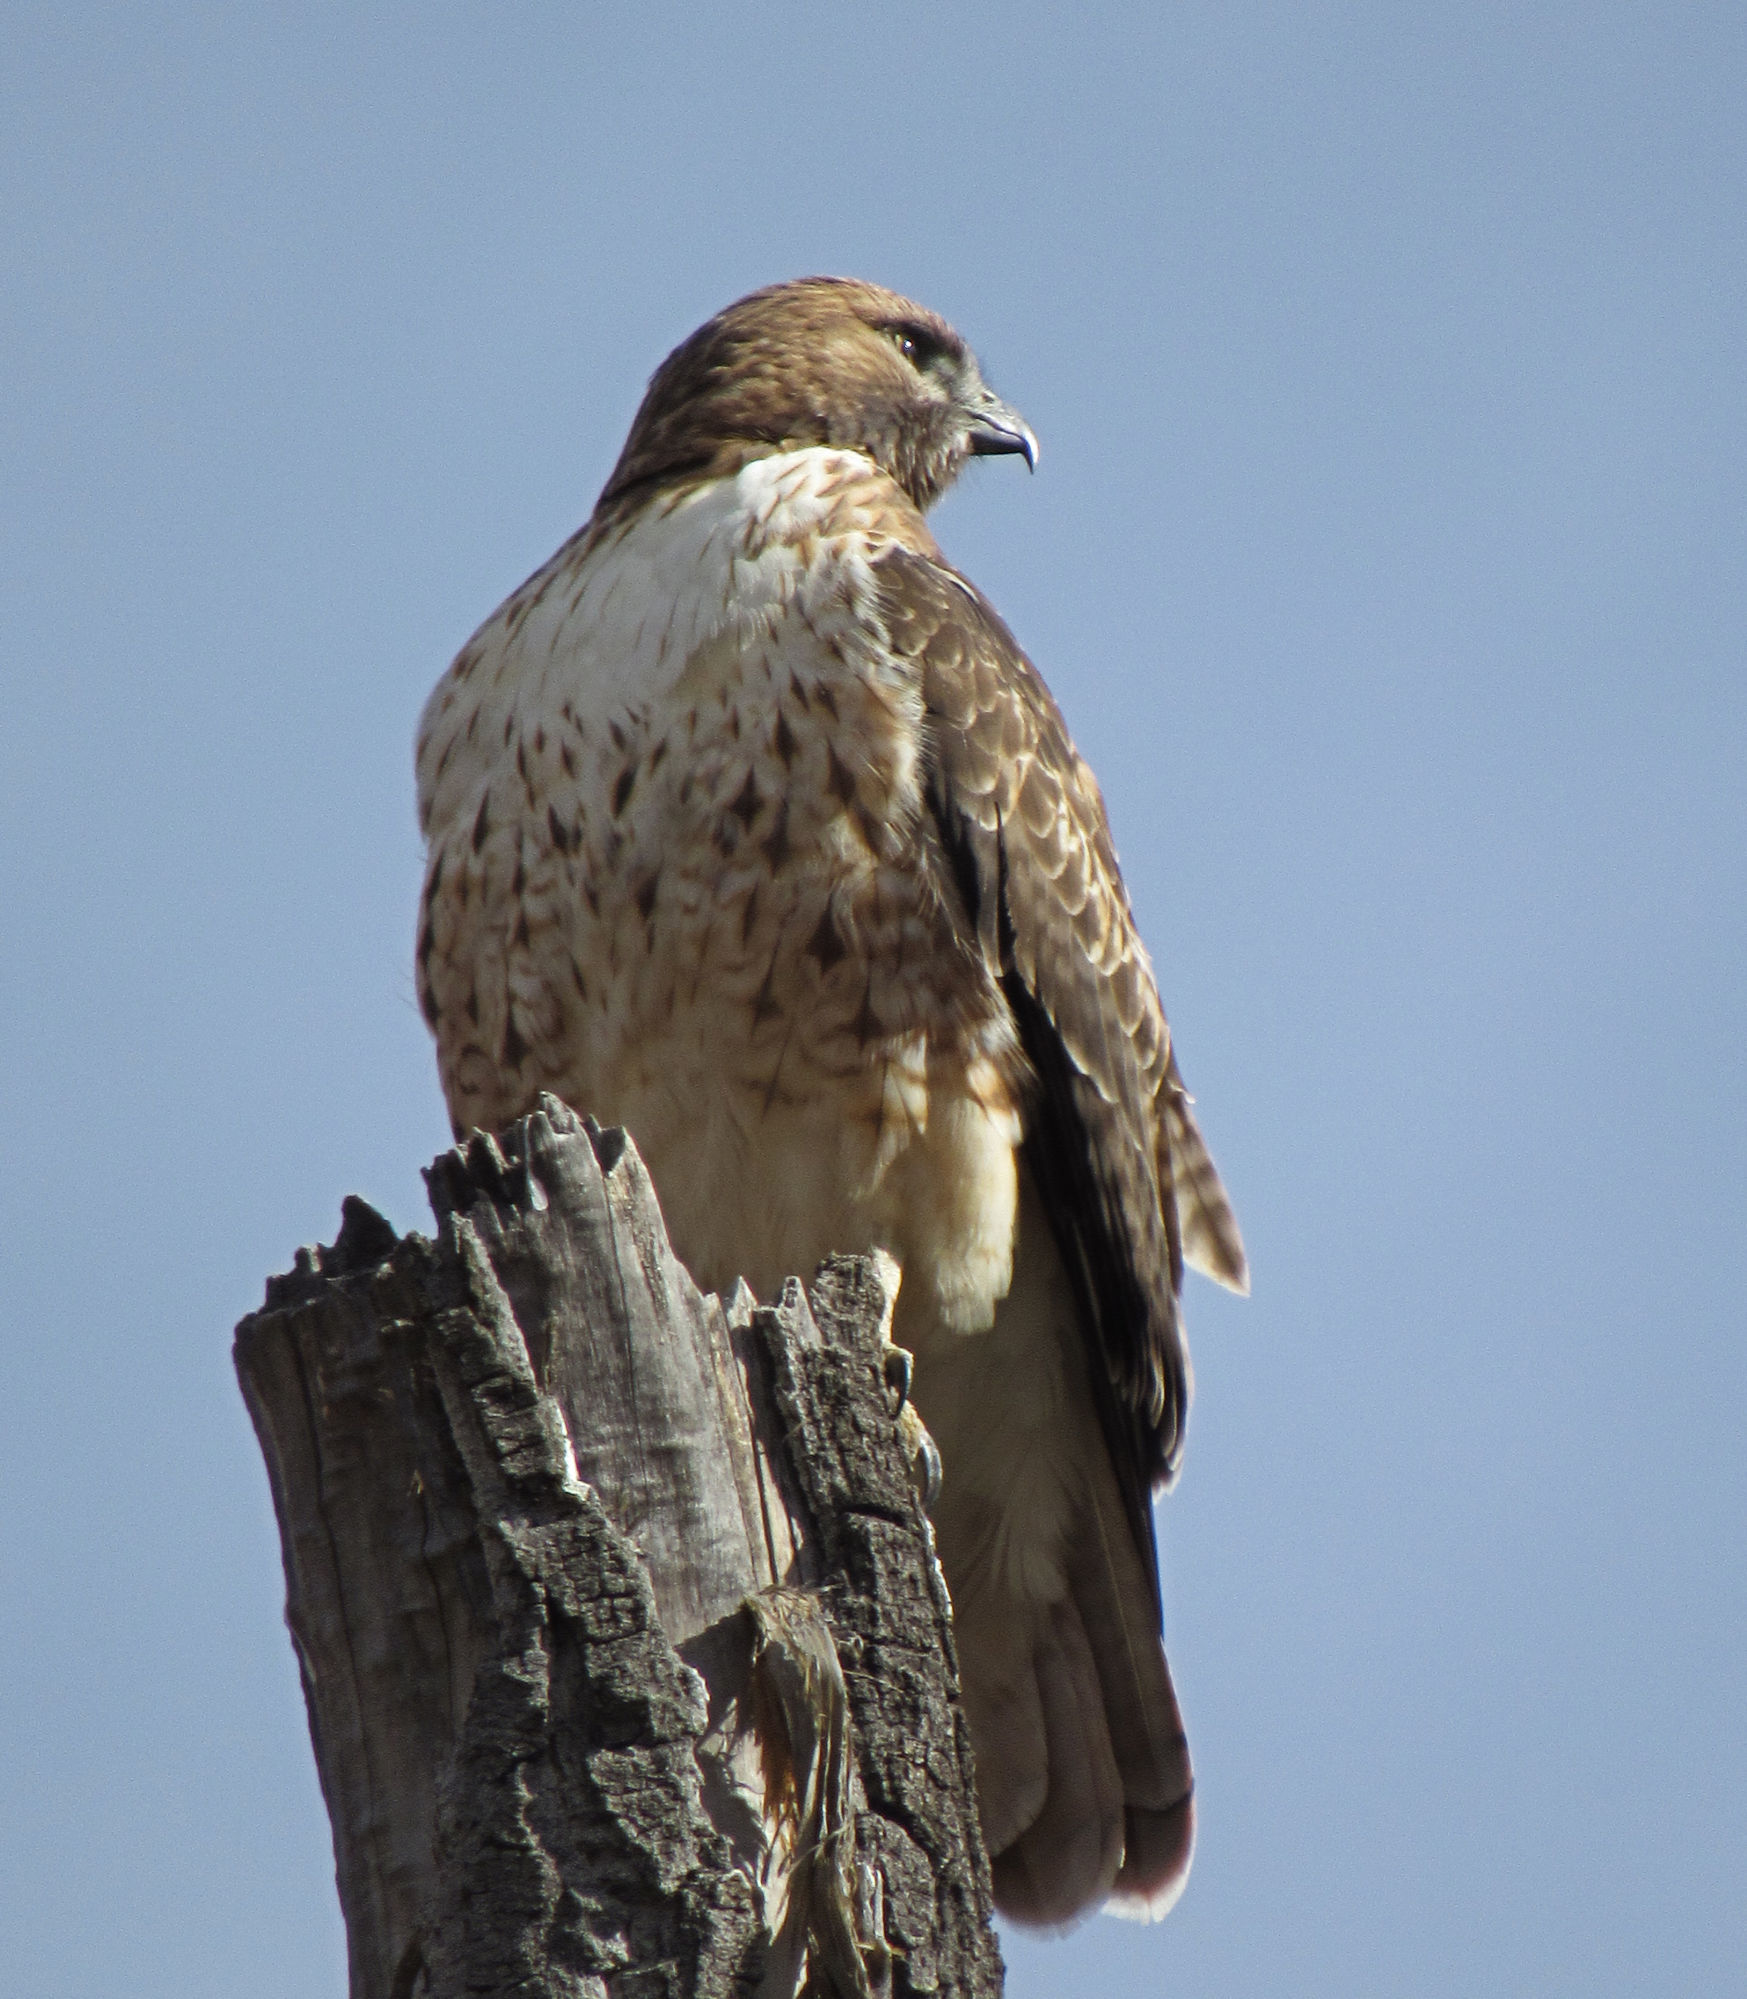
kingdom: Animalia
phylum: Chordata
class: Aves
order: Accipitriformes
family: Accipitridae
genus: Buteo
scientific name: Buteo jamaicensis
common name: Red-tailed hawk
